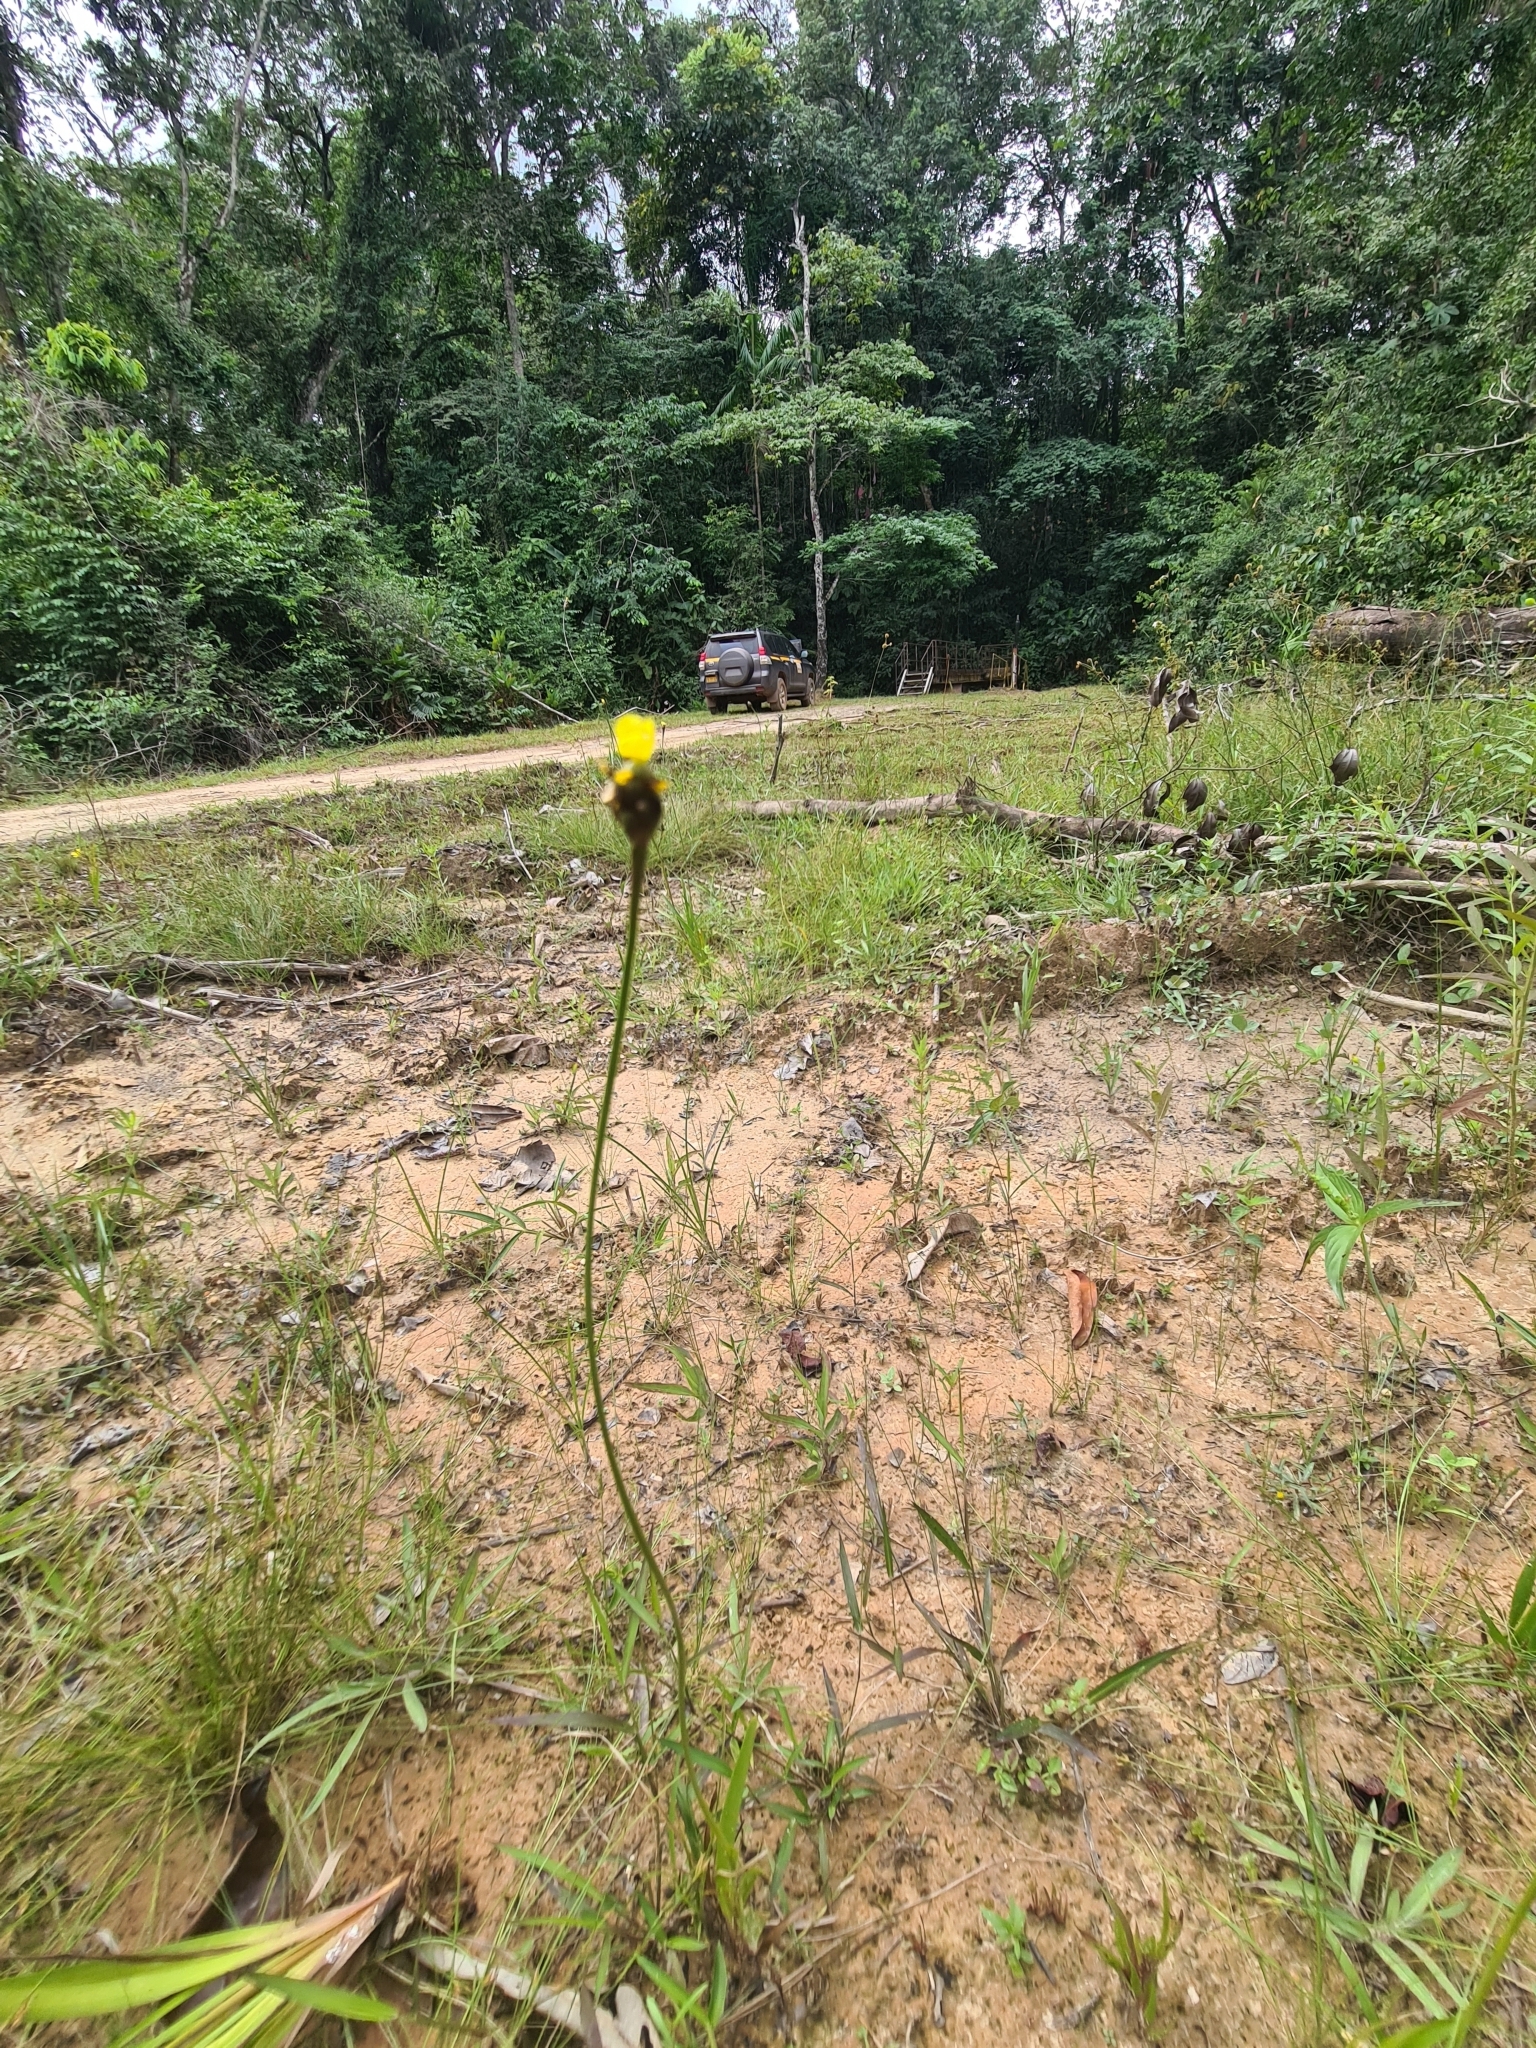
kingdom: Plantae
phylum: Tracheophyta
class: Liliopsida
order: Poales
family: Xyridaceae
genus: Xyris
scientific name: Xyris jupicai
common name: Richard's yelloweyed grass
